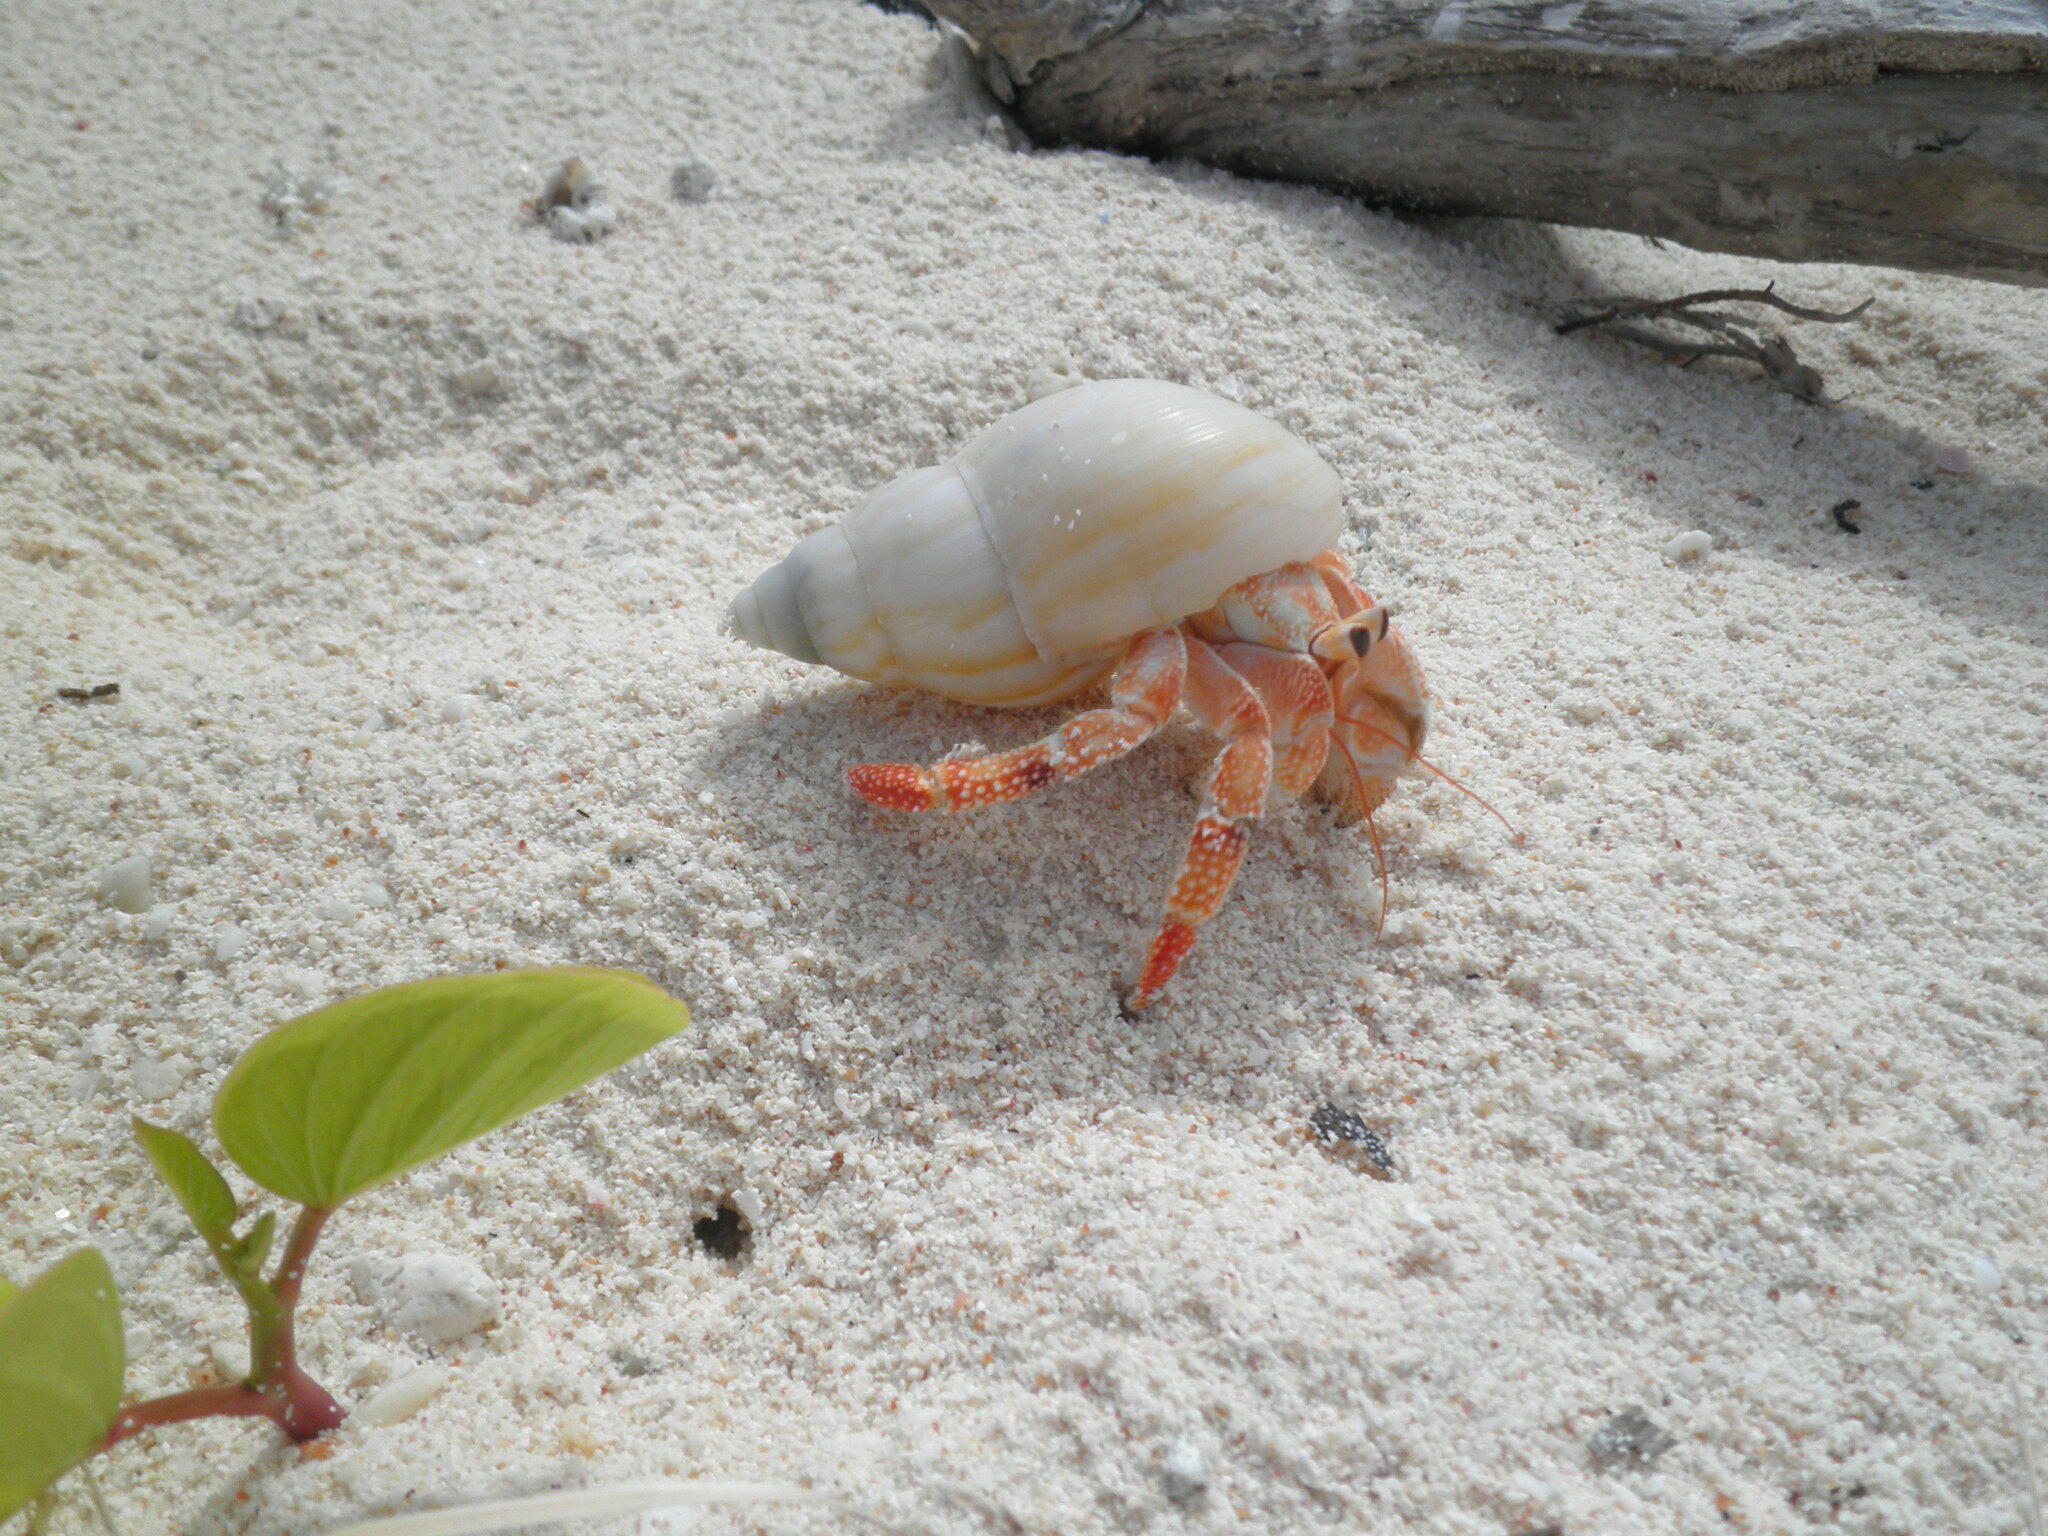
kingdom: Animalia
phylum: Arthropoda
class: Malacostraca
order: Decapoda
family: Coenobitidae
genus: Coenobita
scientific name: Coenobita perlatus
